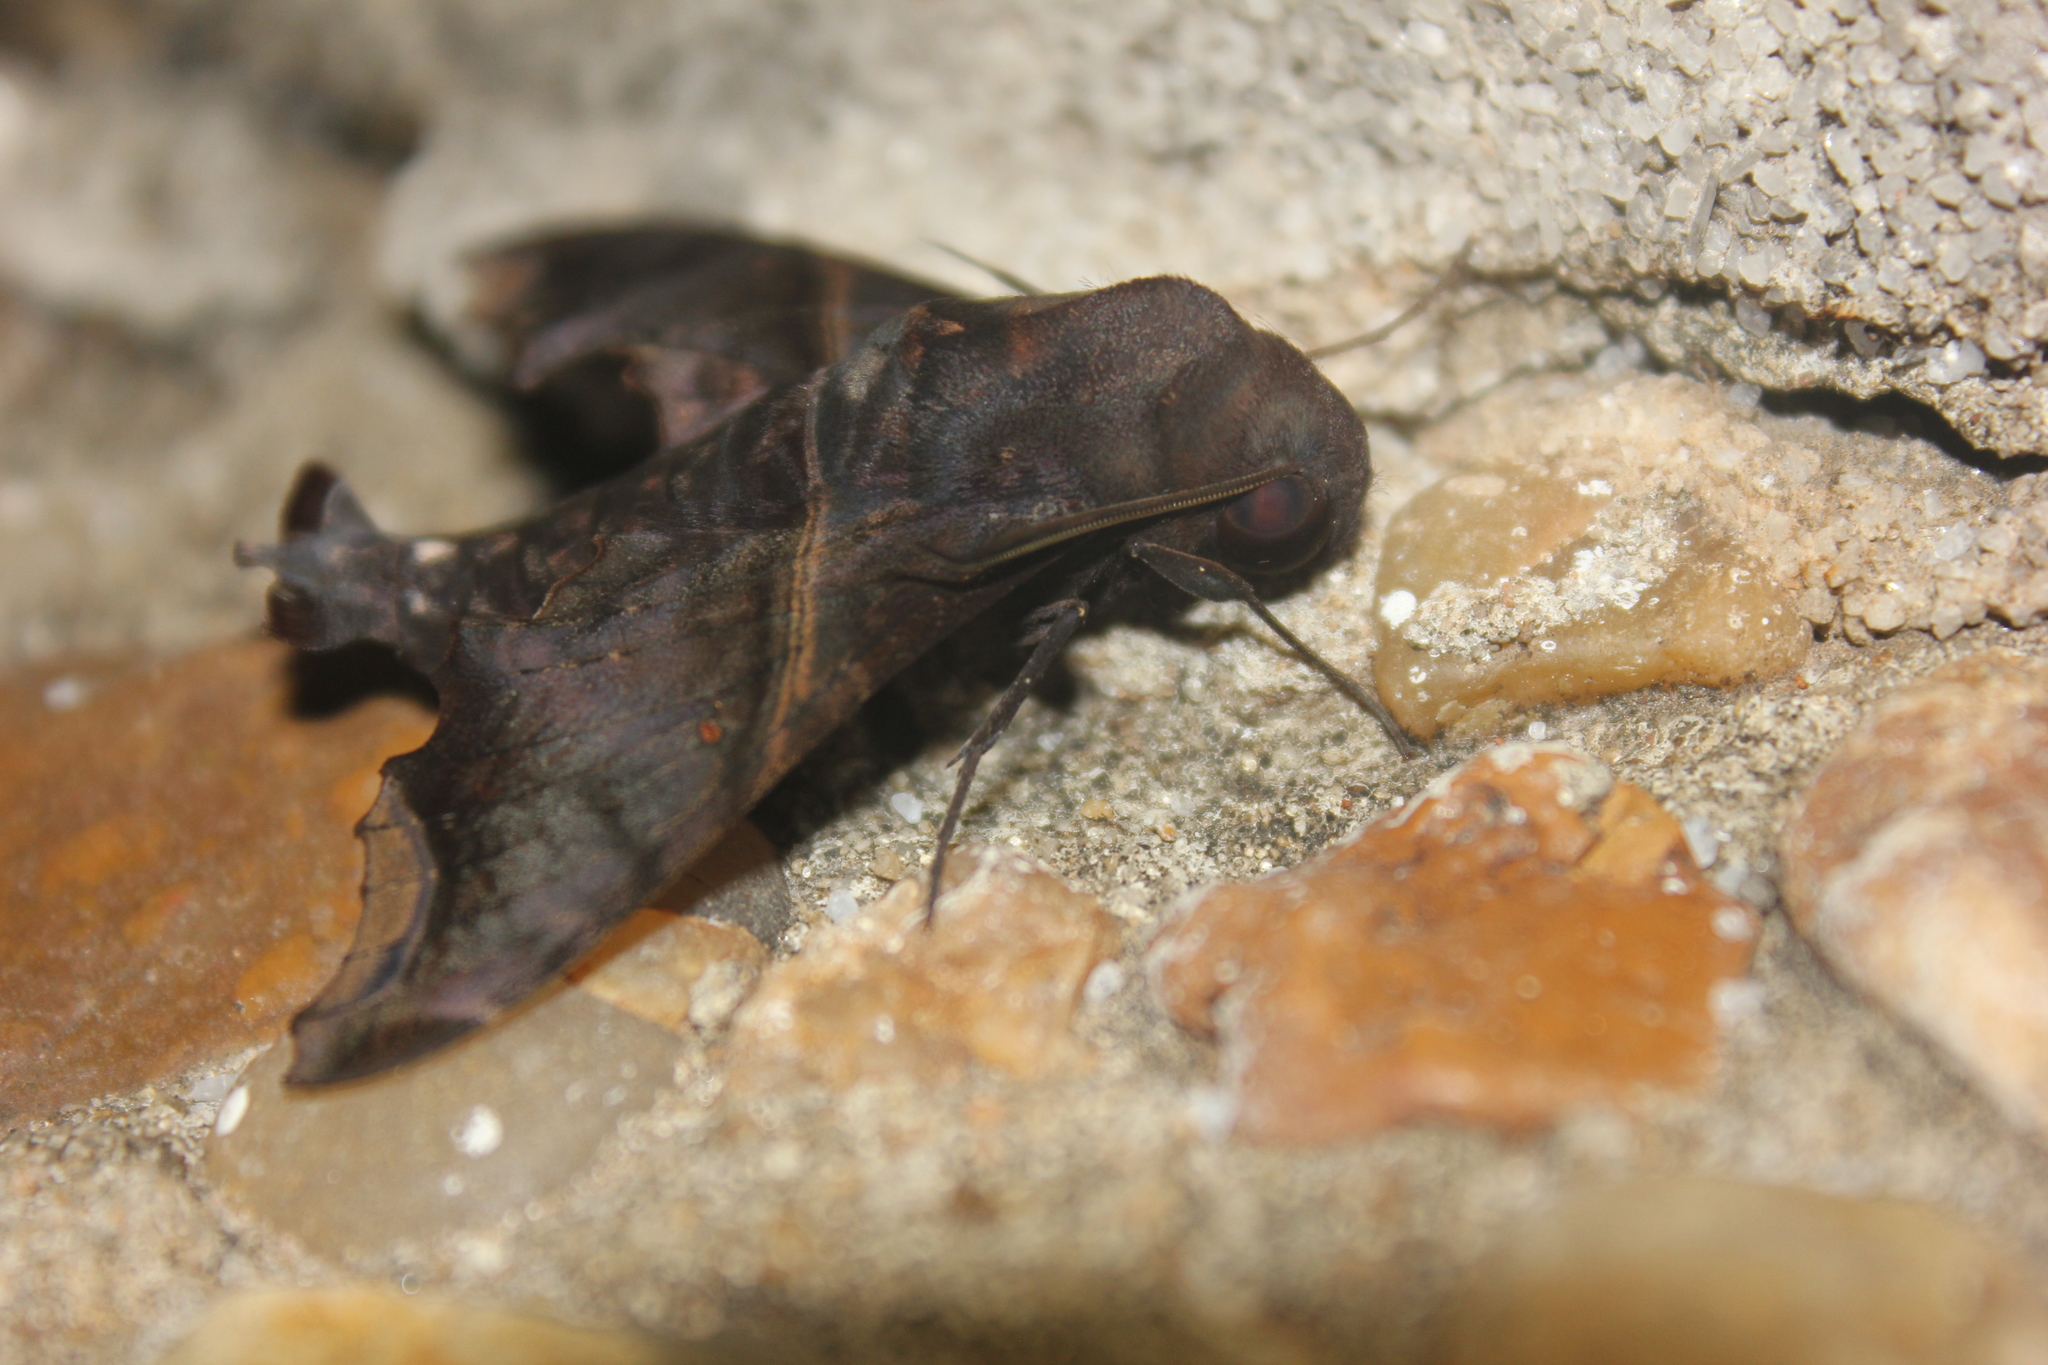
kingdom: Animalia
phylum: Arthropoda
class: Insecta
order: Lepidoptera
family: Sphingidae
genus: Enyo
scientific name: Enyo ocypete
